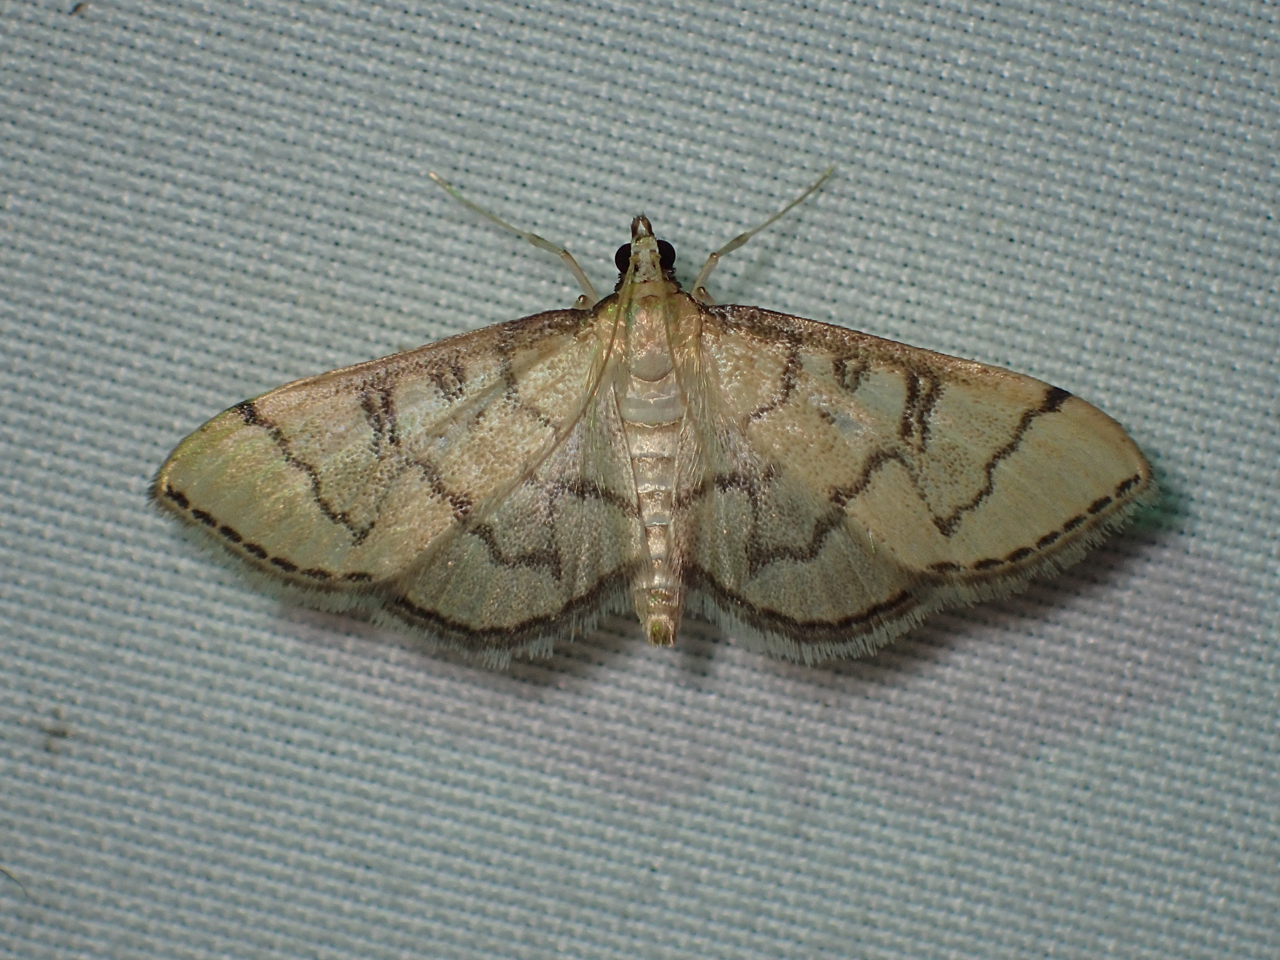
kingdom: Animalia
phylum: Arthropoda
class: Insecta
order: Lepidoptera
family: Crambidae
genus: Lamprosema
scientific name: Lamprosema Blepharomastix ranalis
